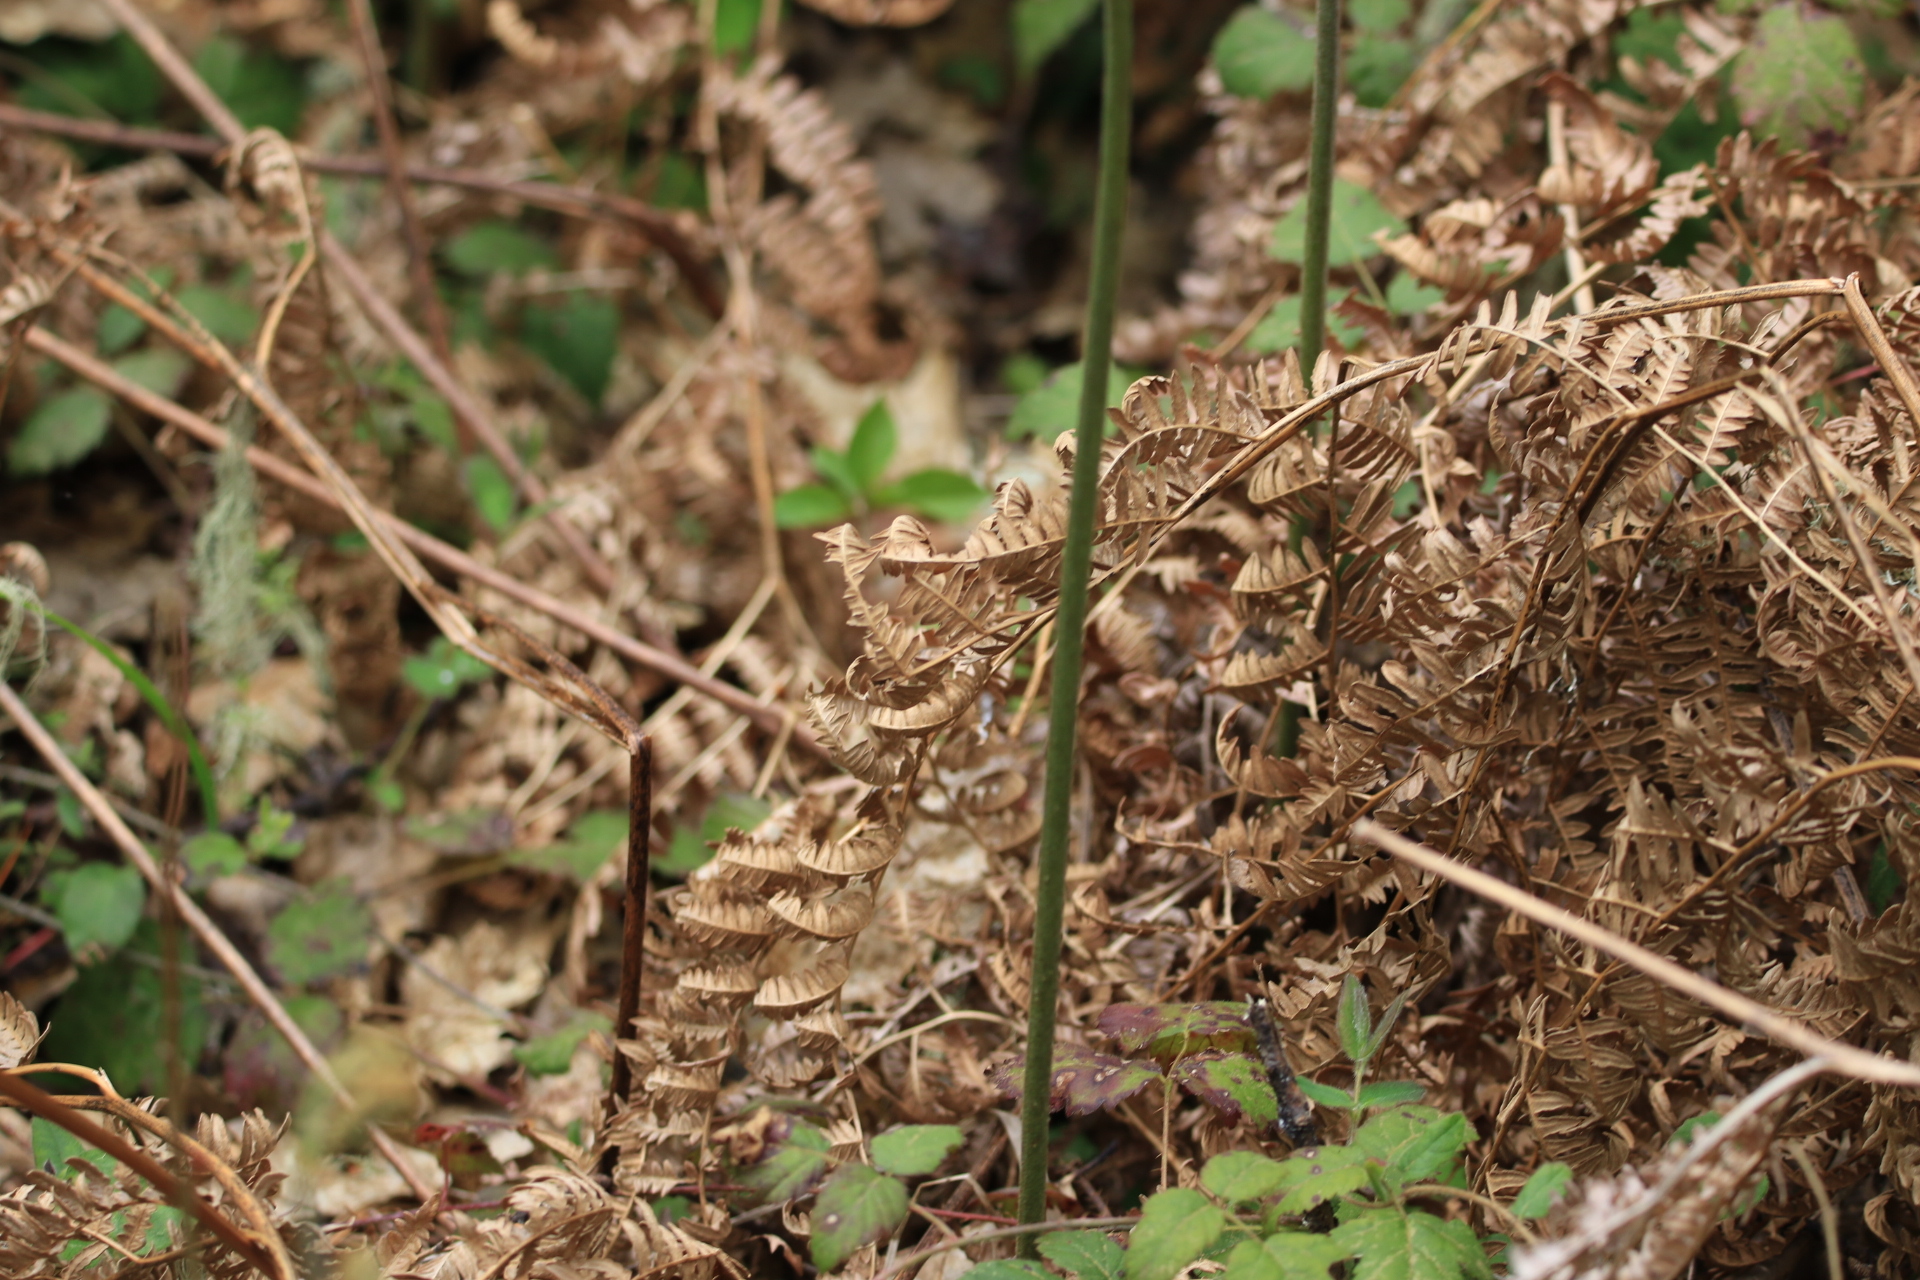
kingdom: Plantae
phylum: Tracheophyta
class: Polypodiopsida
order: Polypodiales
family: Dennstaedtiaceae
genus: Pteridium
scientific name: Pteridium aquilinum
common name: Bracken
